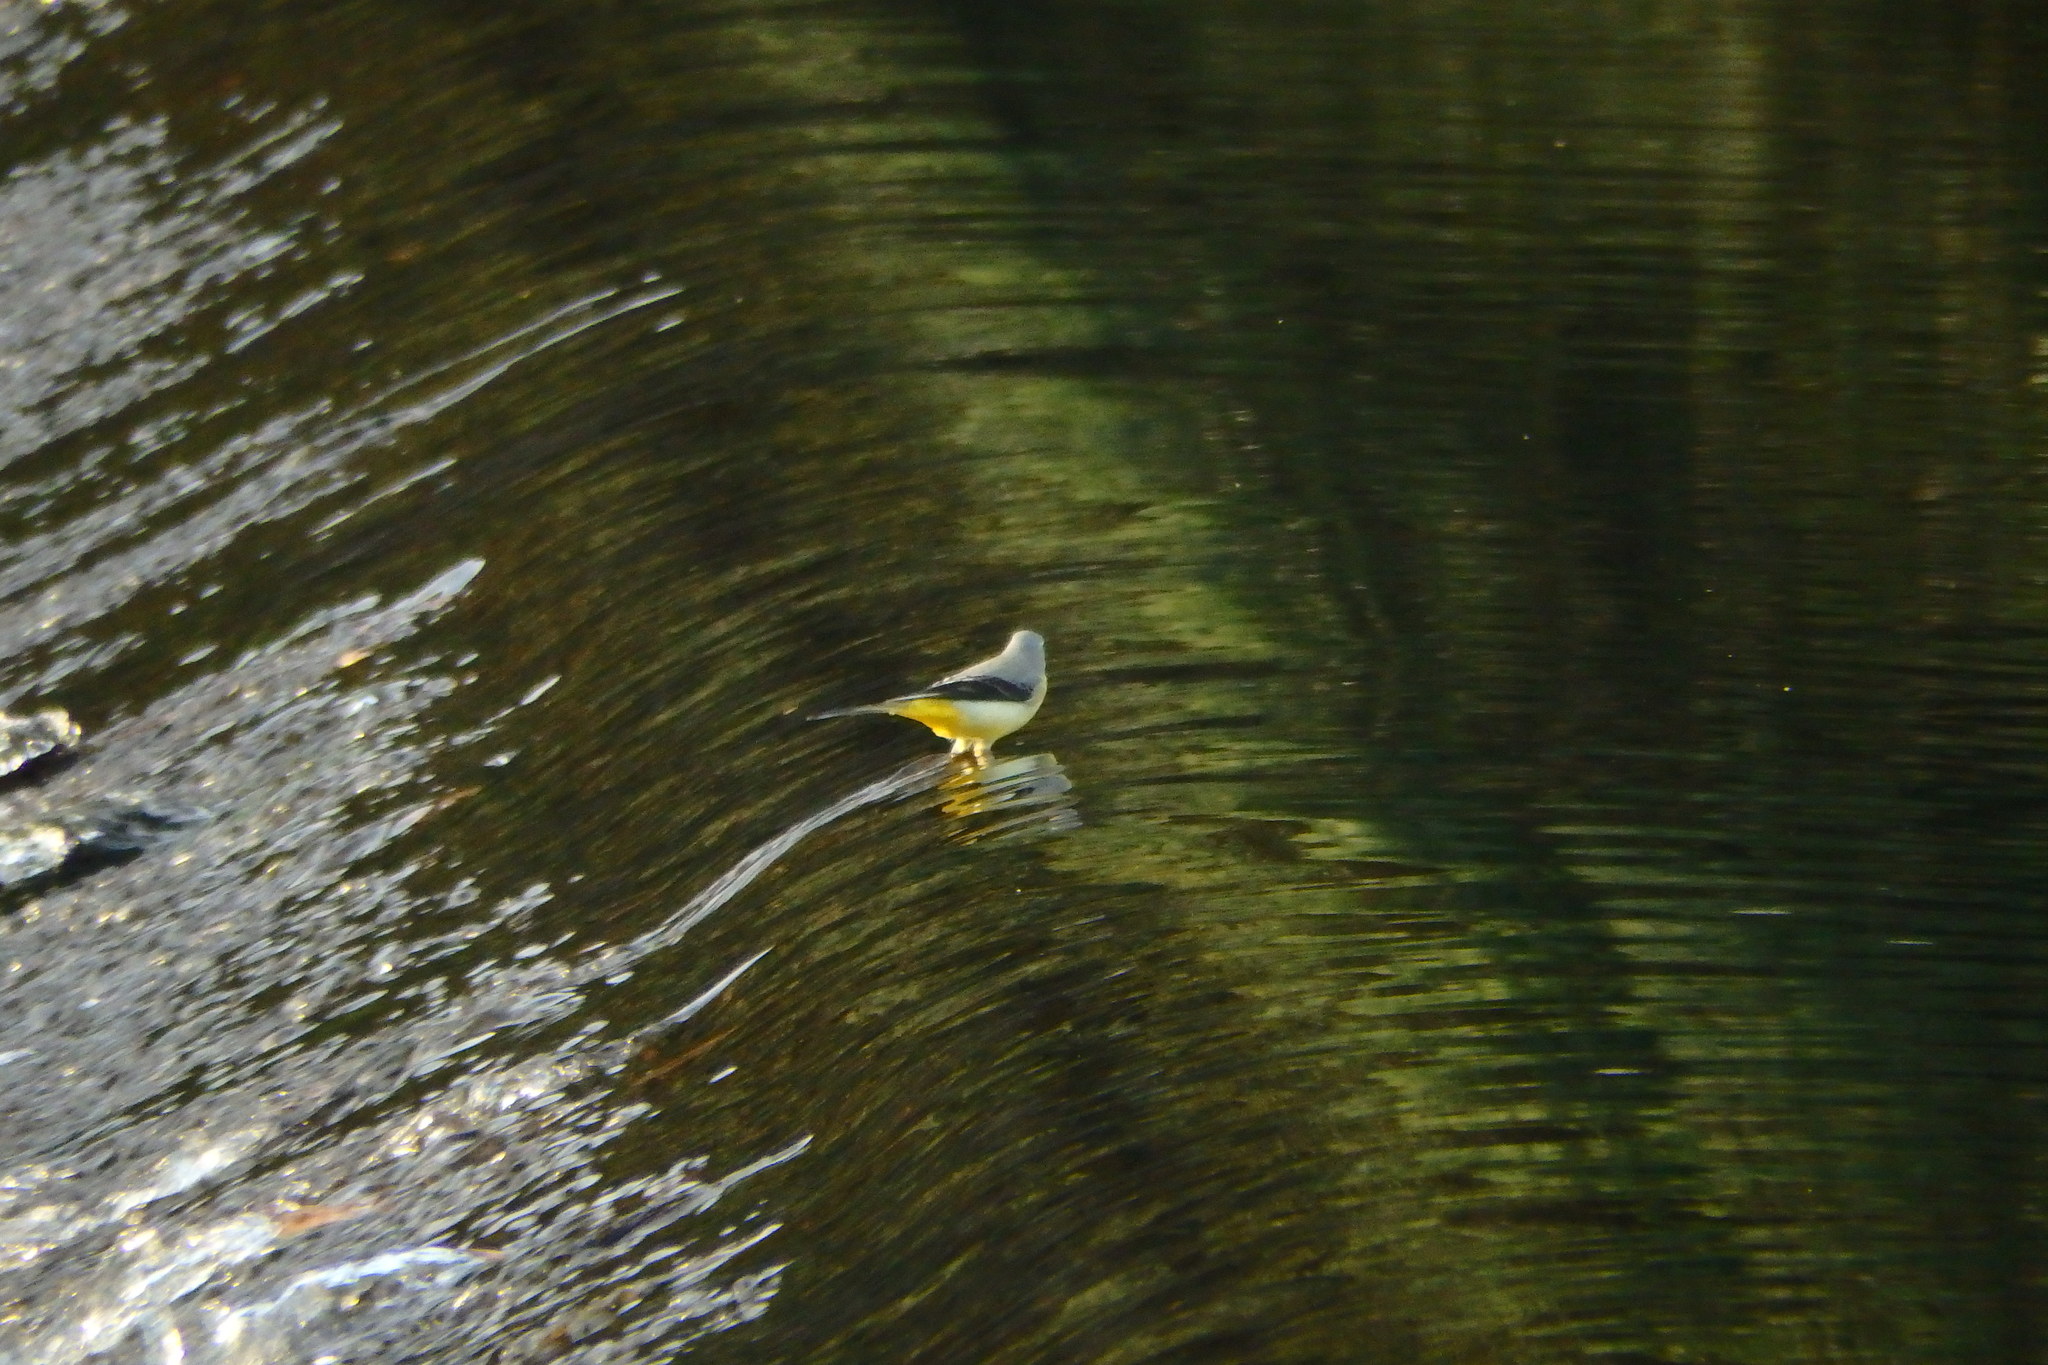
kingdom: Animalia
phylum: Chordata
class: Aves
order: Passeriformes
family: Motacillidae
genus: Motacilla
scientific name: Motacilla cinerea
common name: Grey wagtail
